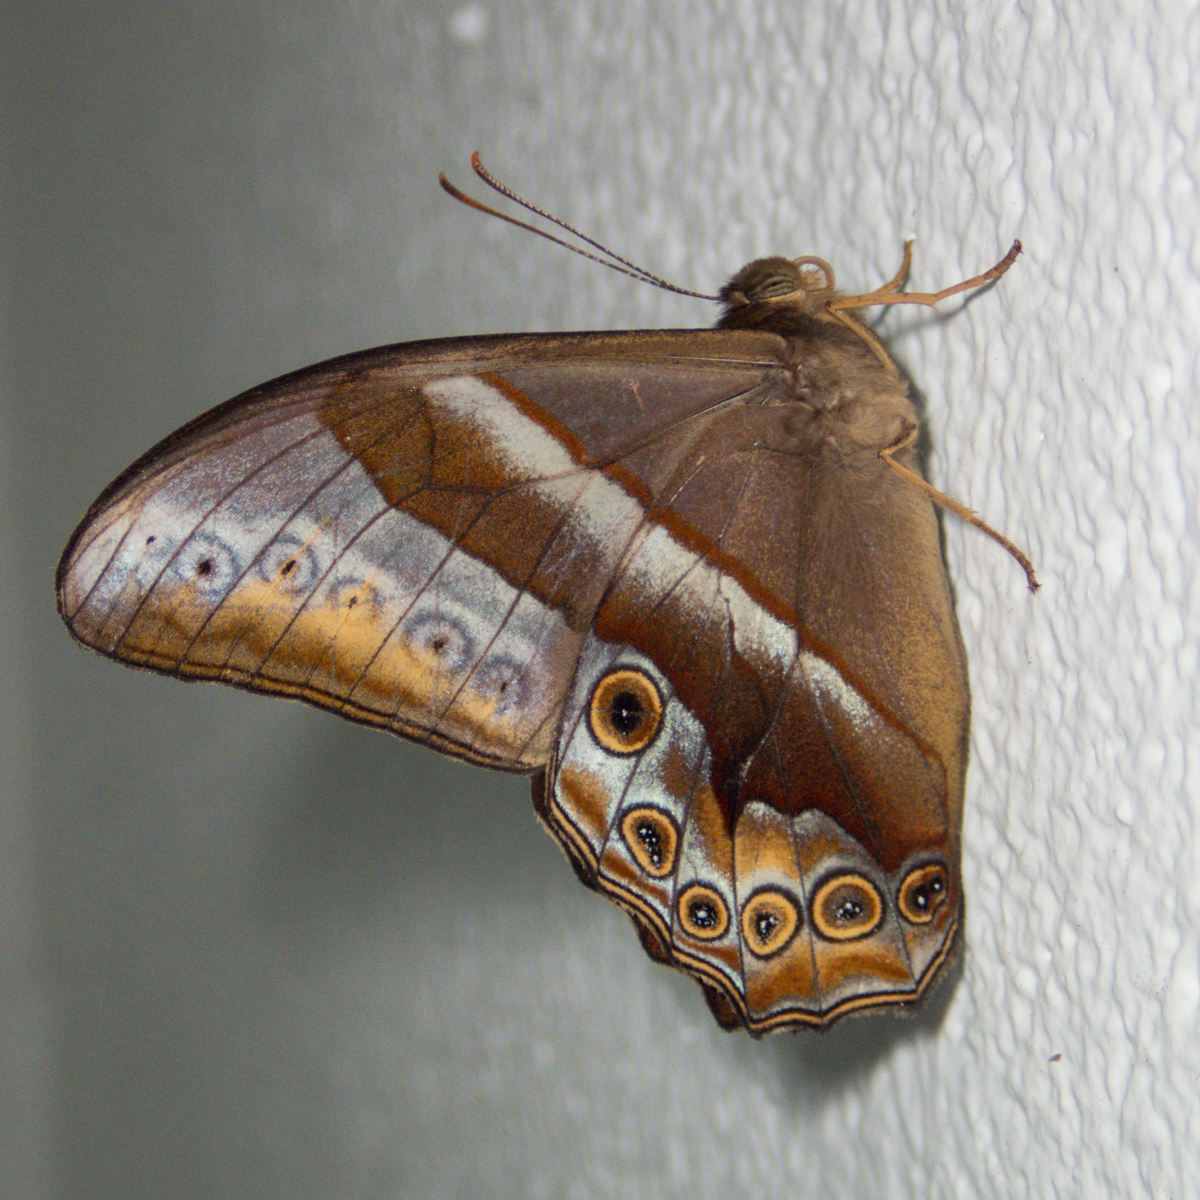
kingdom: Animalia
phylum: Arthropoda
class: Insecta
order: Lepidoptera
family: Nymphalidae
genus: Lethe
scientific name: Lethe mekara
